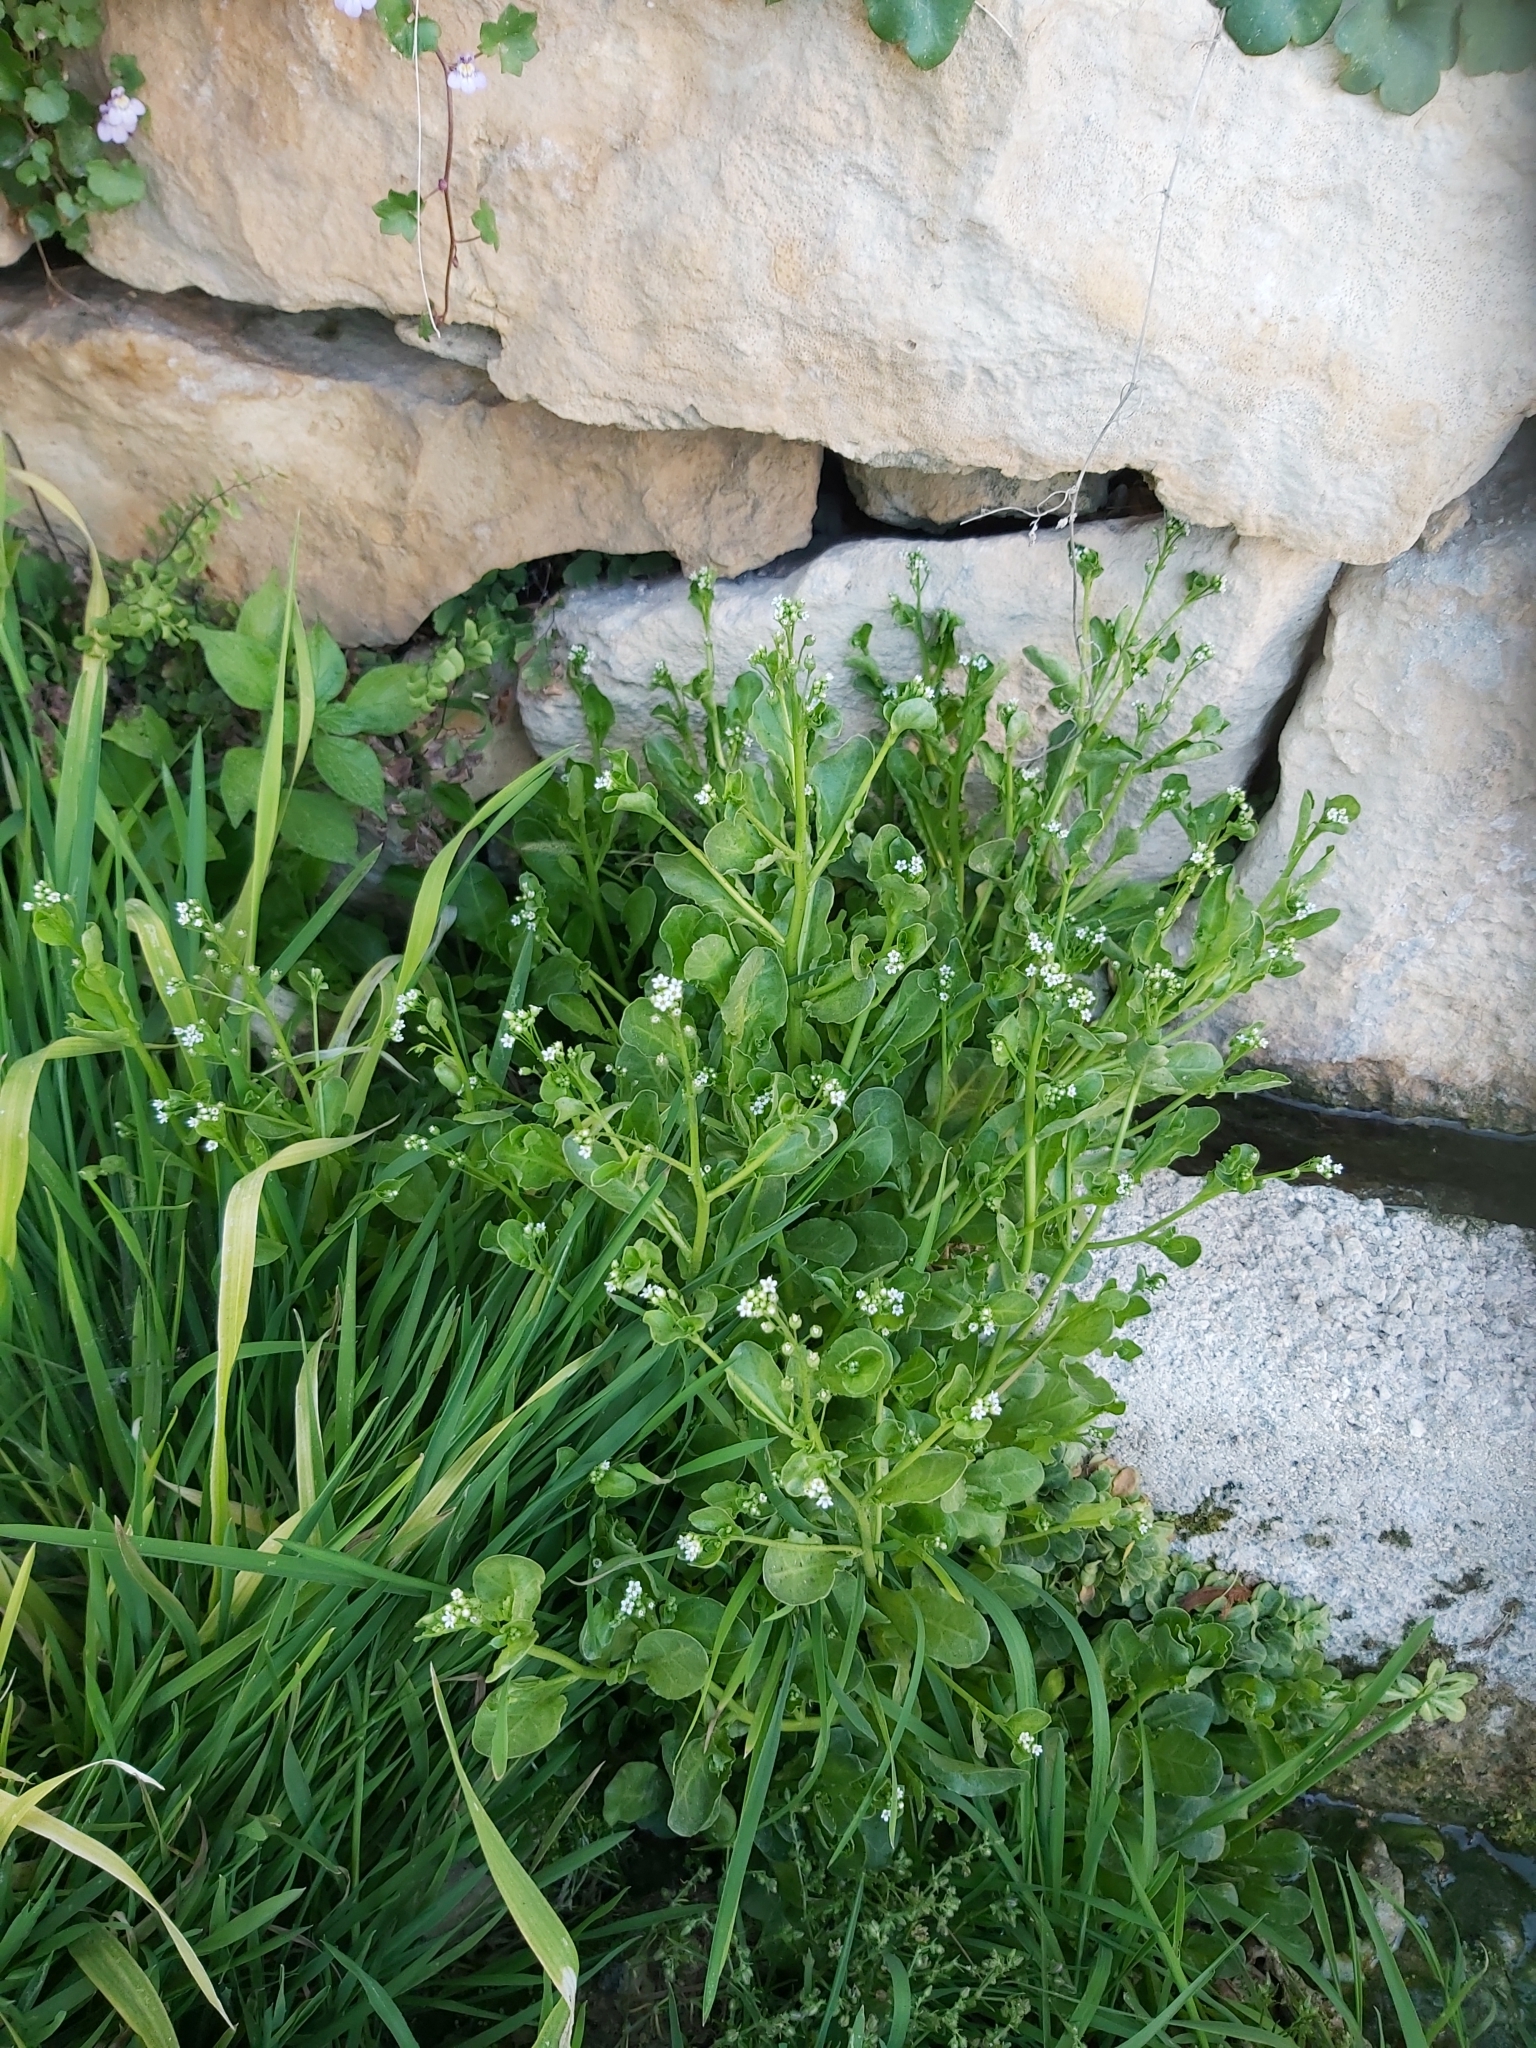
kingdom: Plantae
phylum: Tracheophyta
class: Magnoliopsida
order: Ericales
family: Primulaceae
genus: Samolus
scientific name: Samolus valerandi
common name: Brookweed
